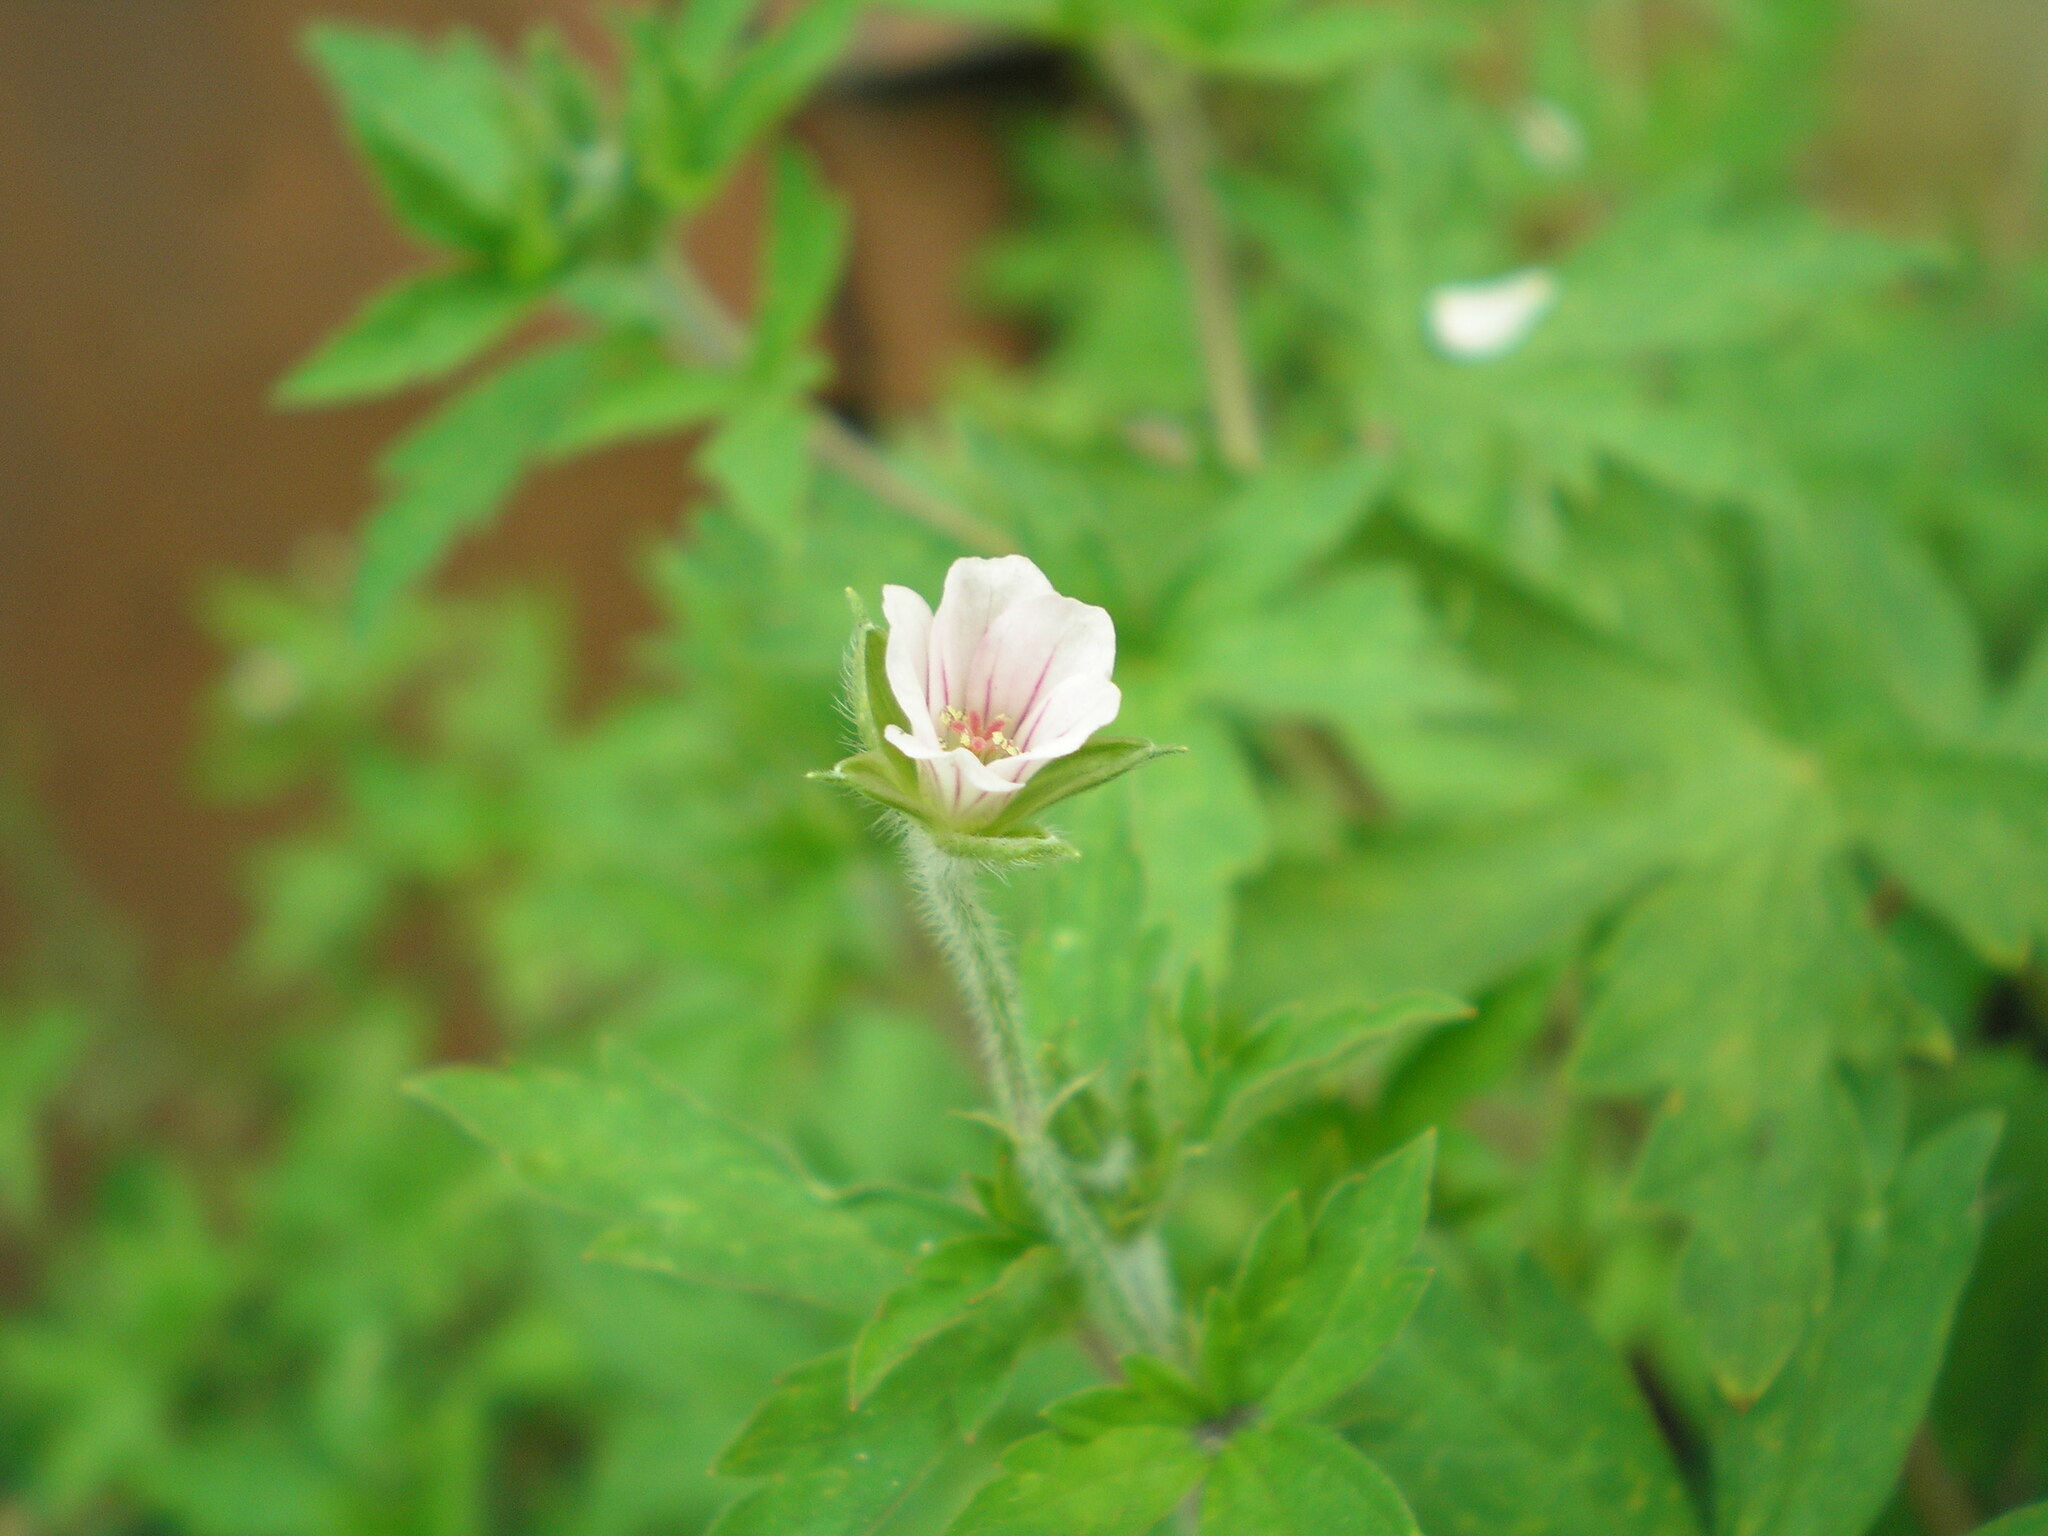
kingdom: Plantae
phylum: Tracheophyta
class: Magnoliopsida
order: Geraniales
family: Geraniaceae
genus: Geranium
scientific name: Geranium sibiricum
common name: Siberian crane's-bill
